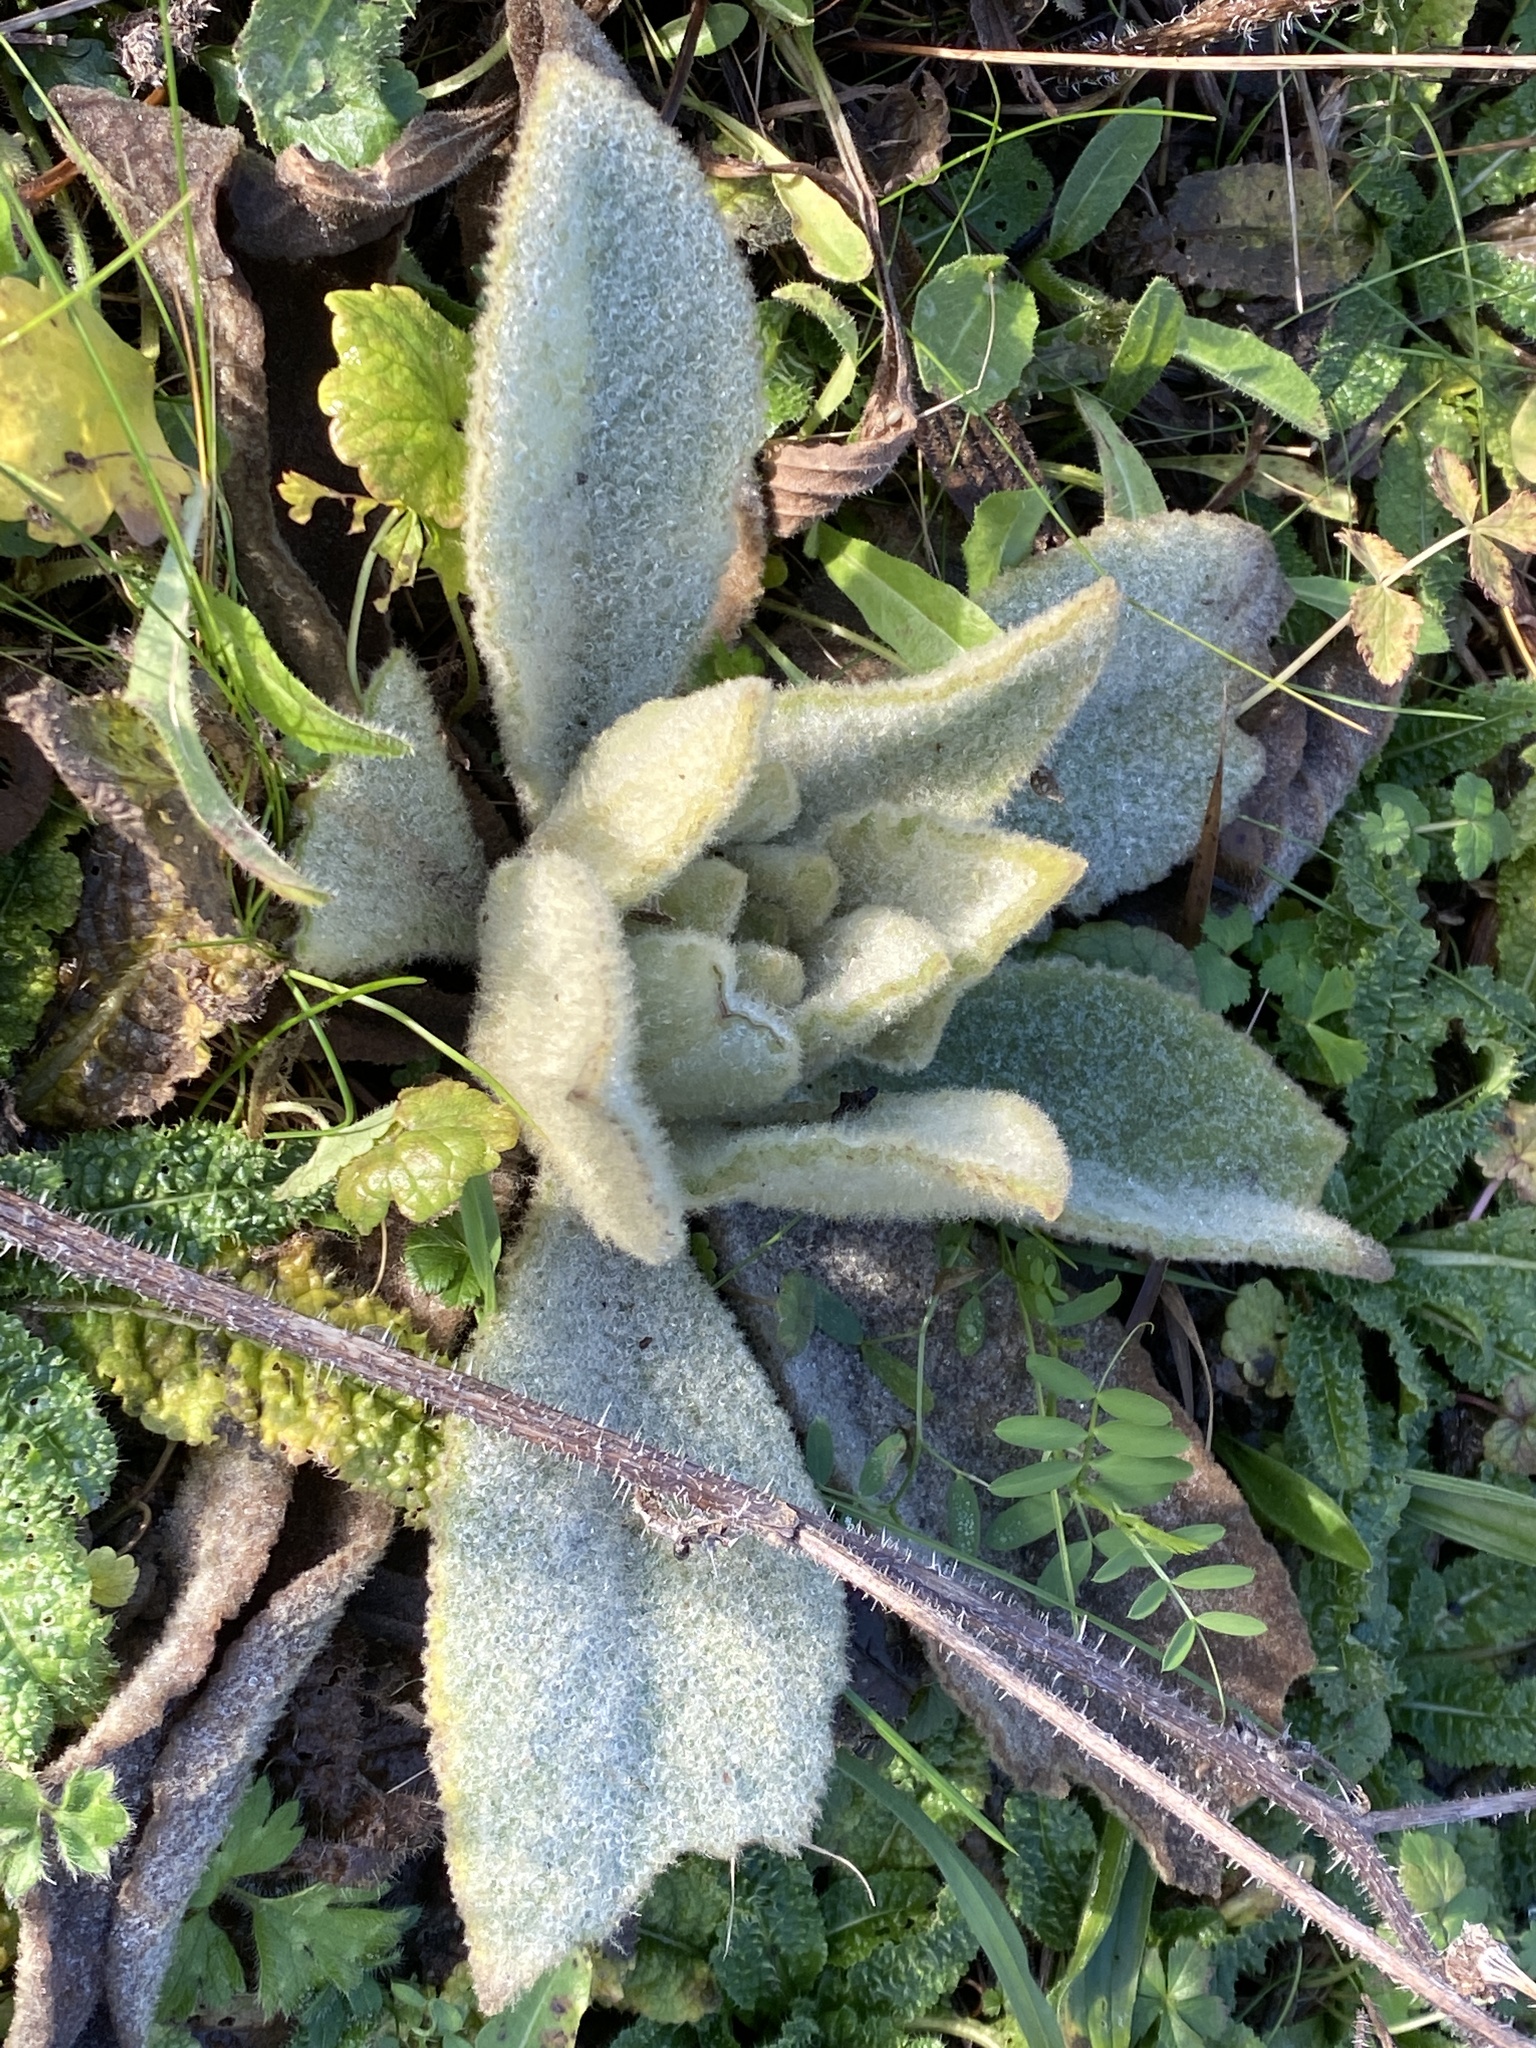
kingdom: Plantae
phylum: Tracheophyta
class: Magnoliopsida
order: Lamiales
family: Scrophulariaceae
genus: Verbascum
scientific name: Verbascum thapsus
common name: Common mullein
